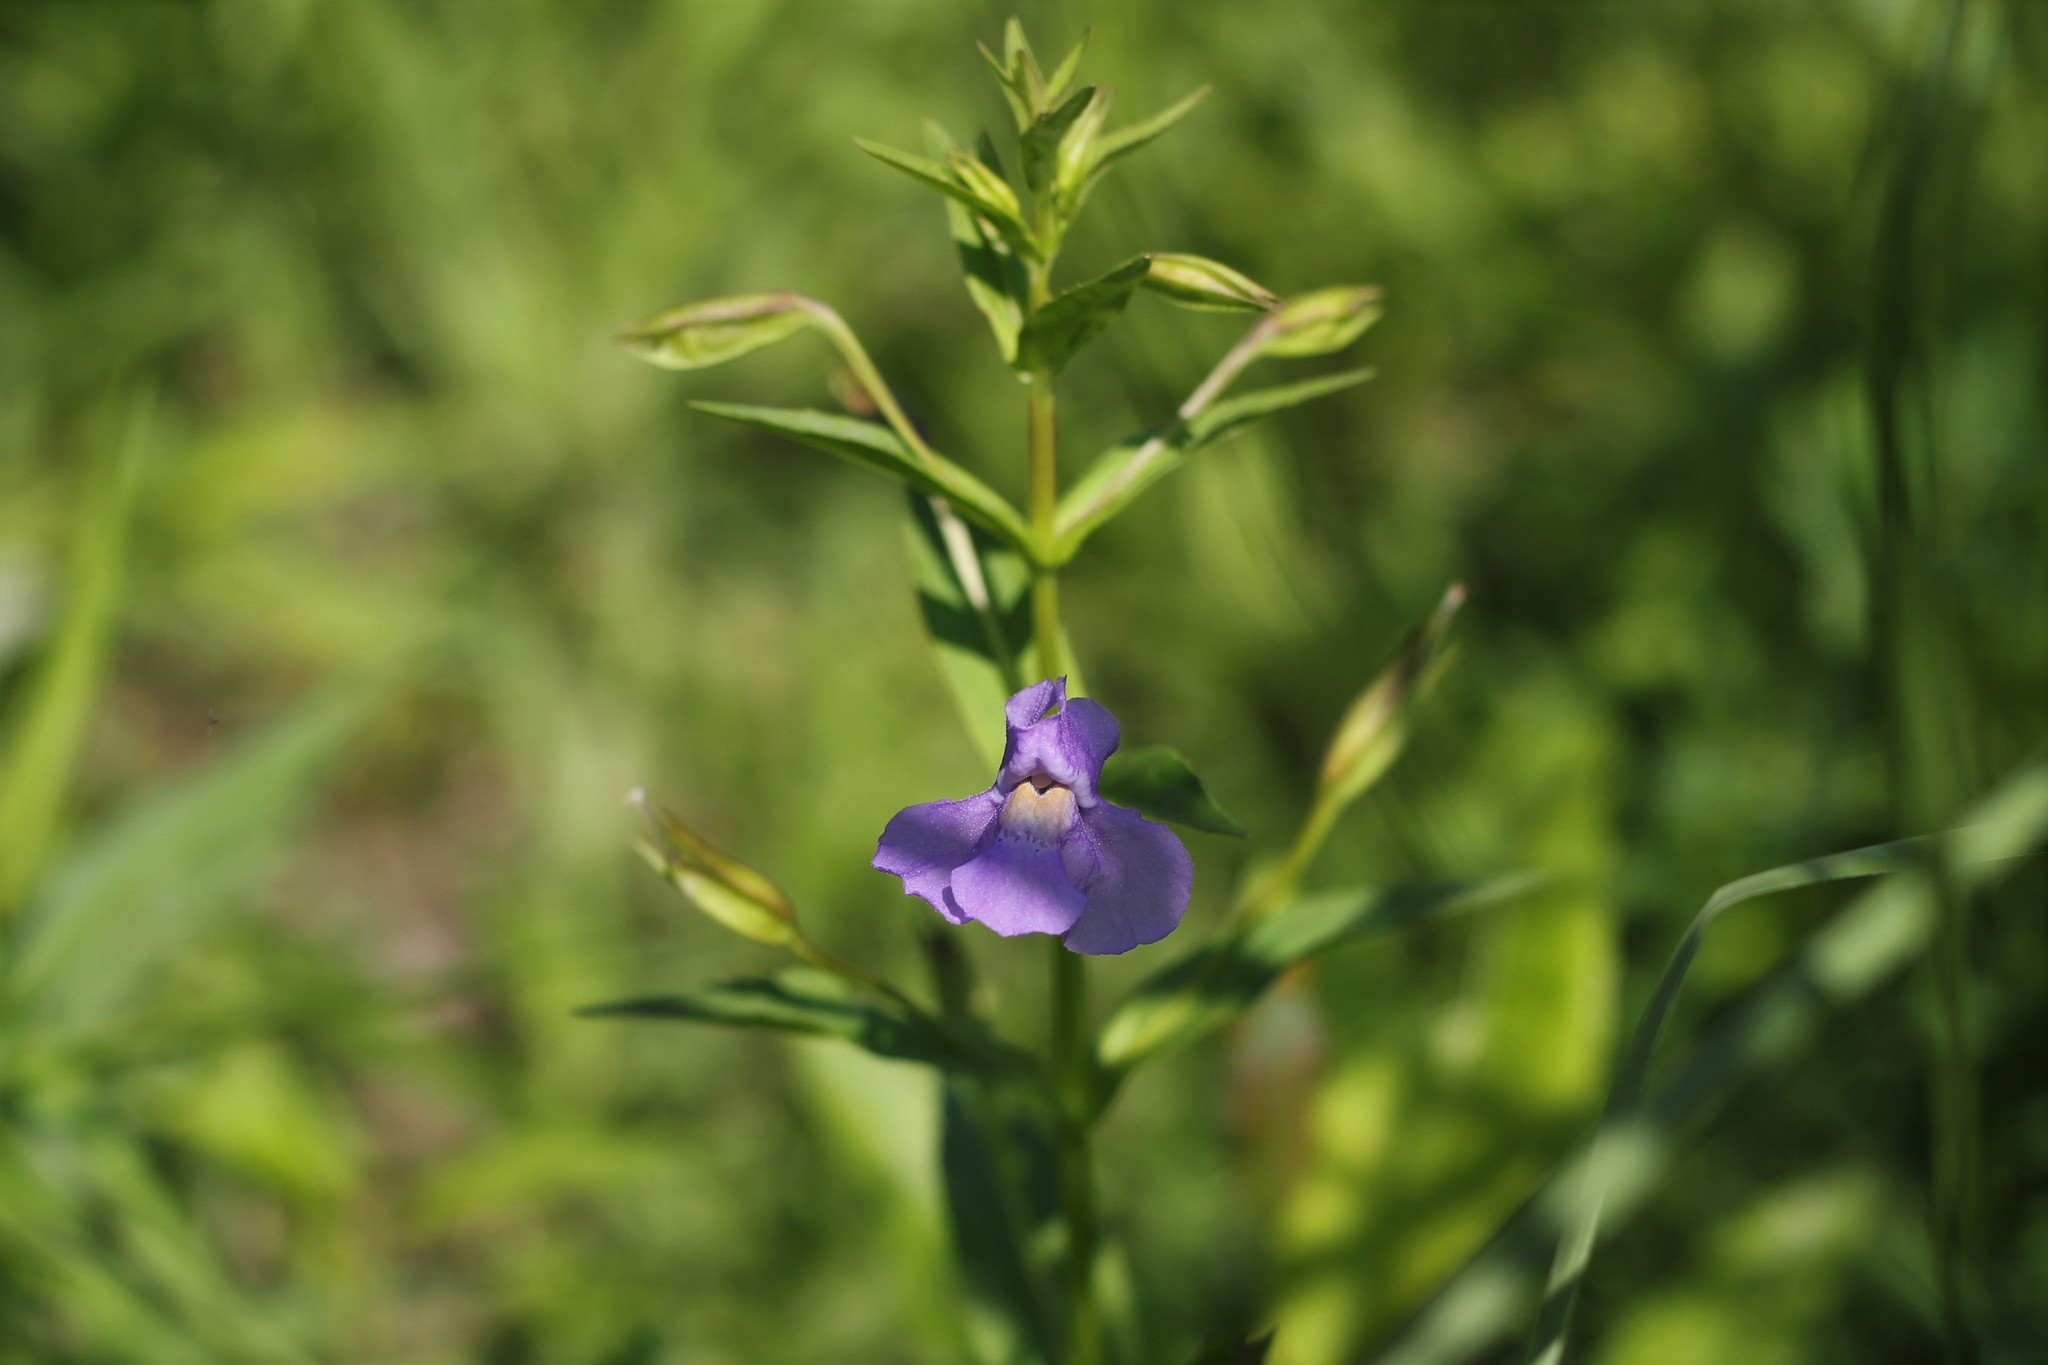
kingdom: Plantae
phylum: Tracheophyta
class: Magnoliopsida
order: Lamiales
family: Phrymaceae
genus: Mimulus
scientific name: Mimulus ringens
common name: Allegheny monkeyflower
